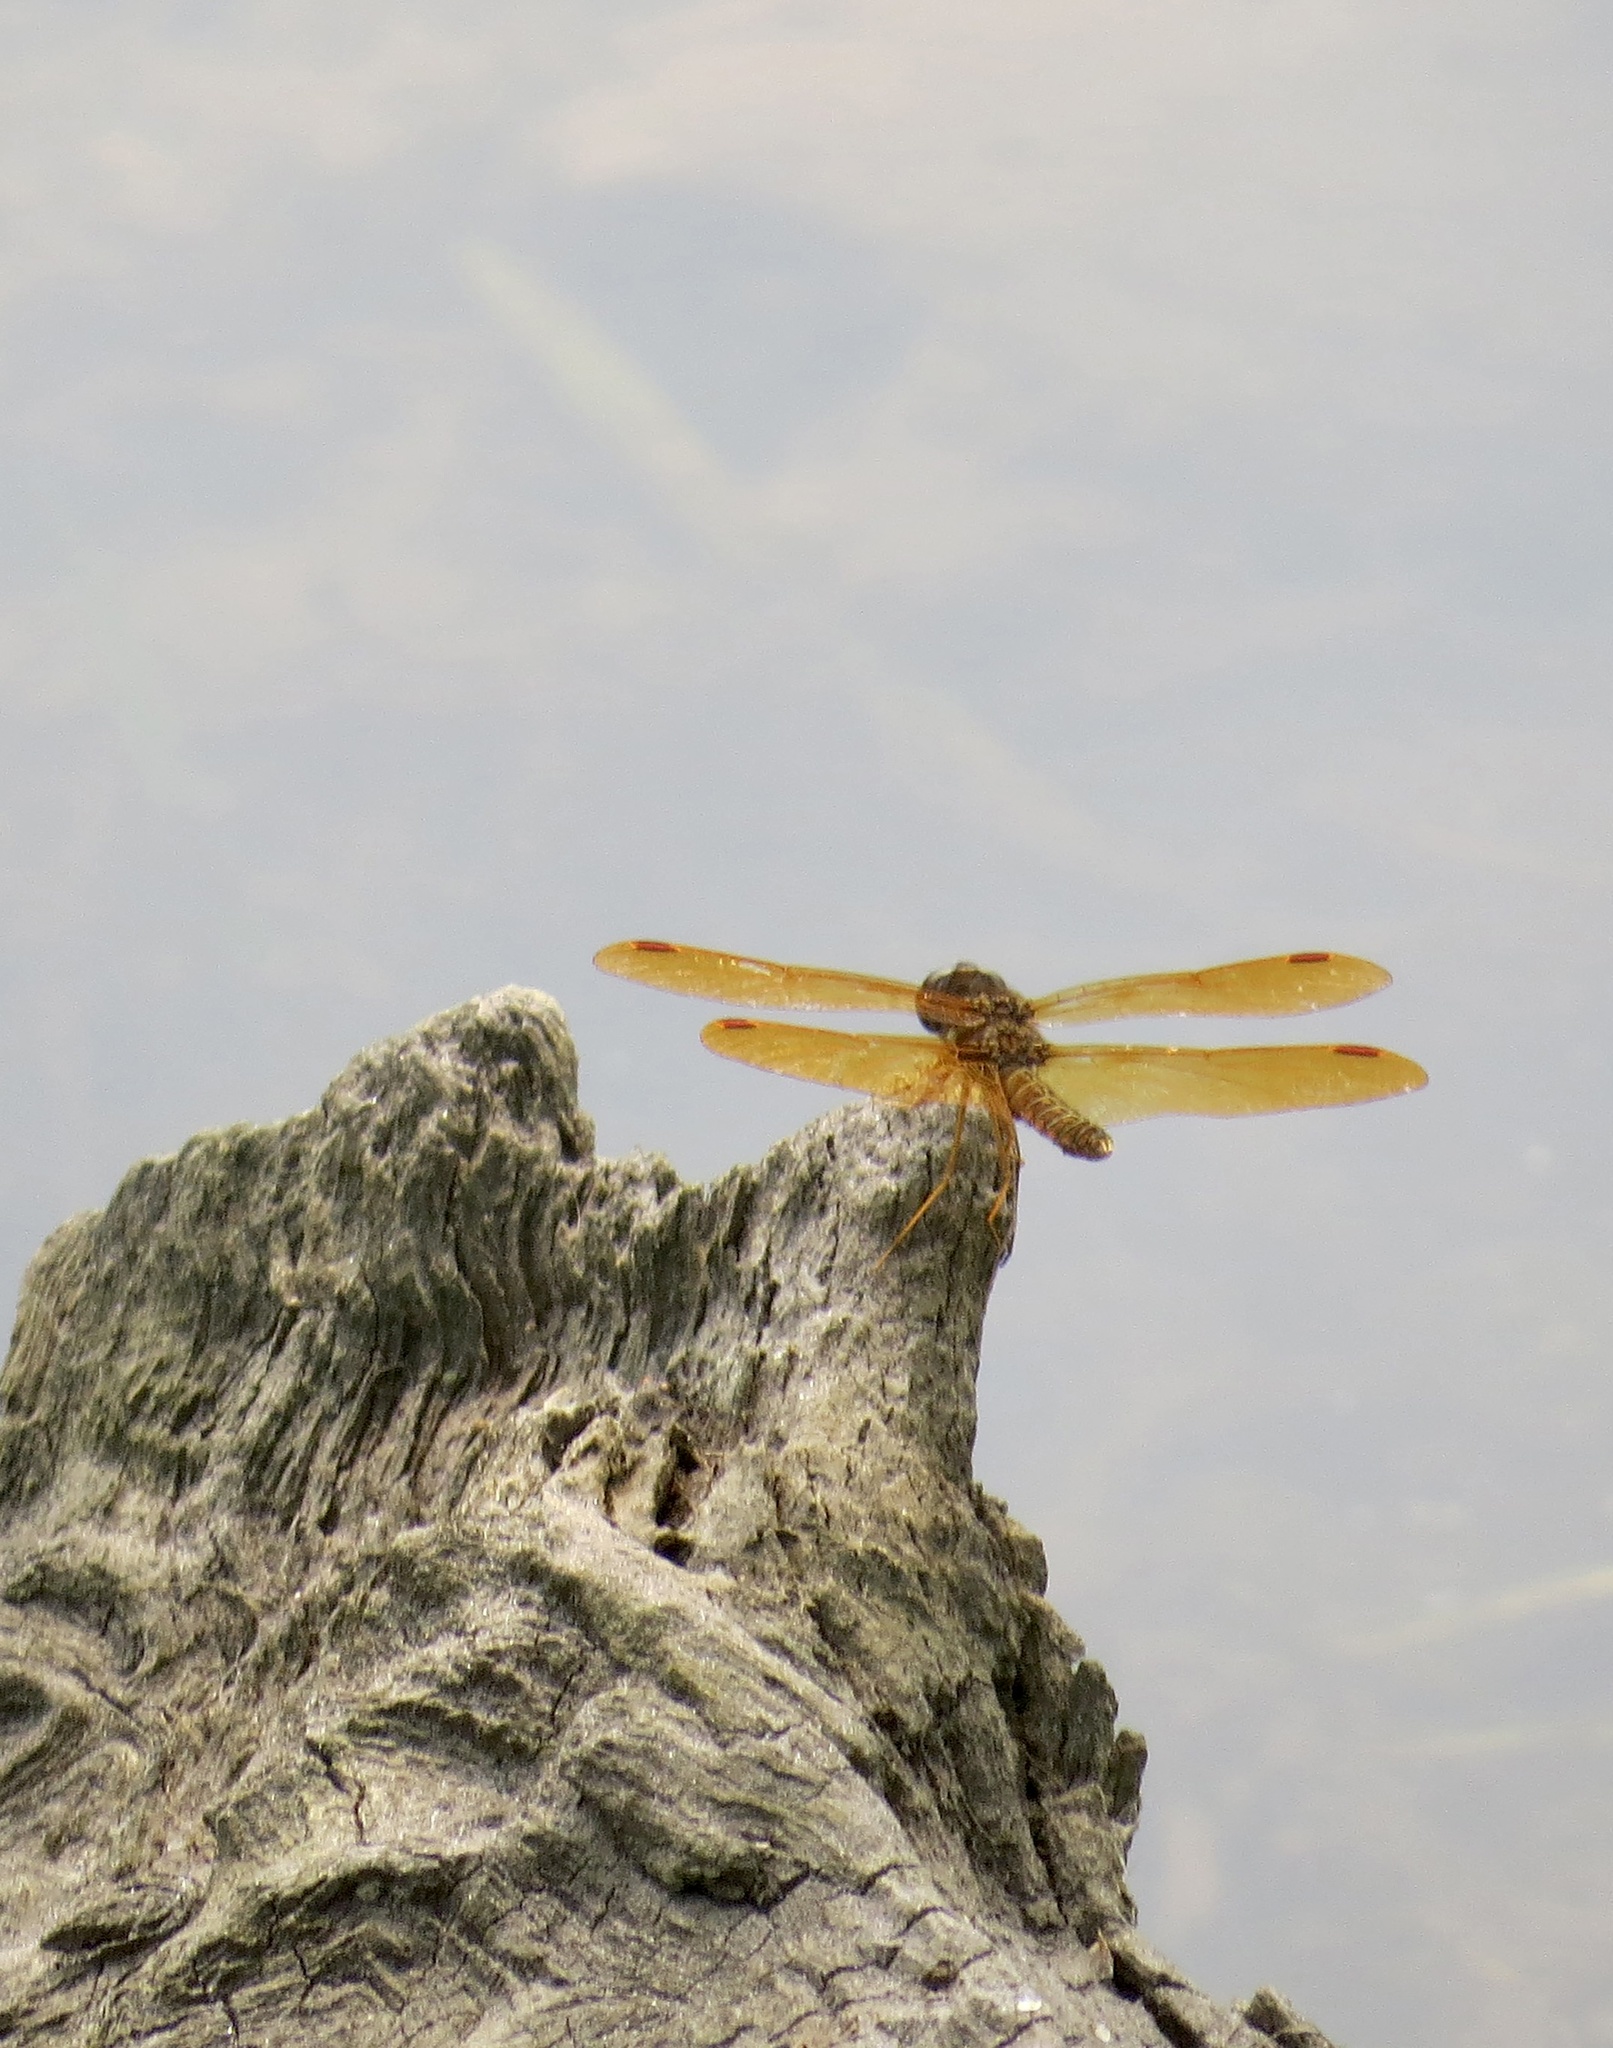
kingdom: Animalia
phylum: Arthropoda
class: Insecta
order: Odonata
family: Libellulidae
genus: Perithemis
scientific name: Perithemis tenera
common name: Eastern amberwing
